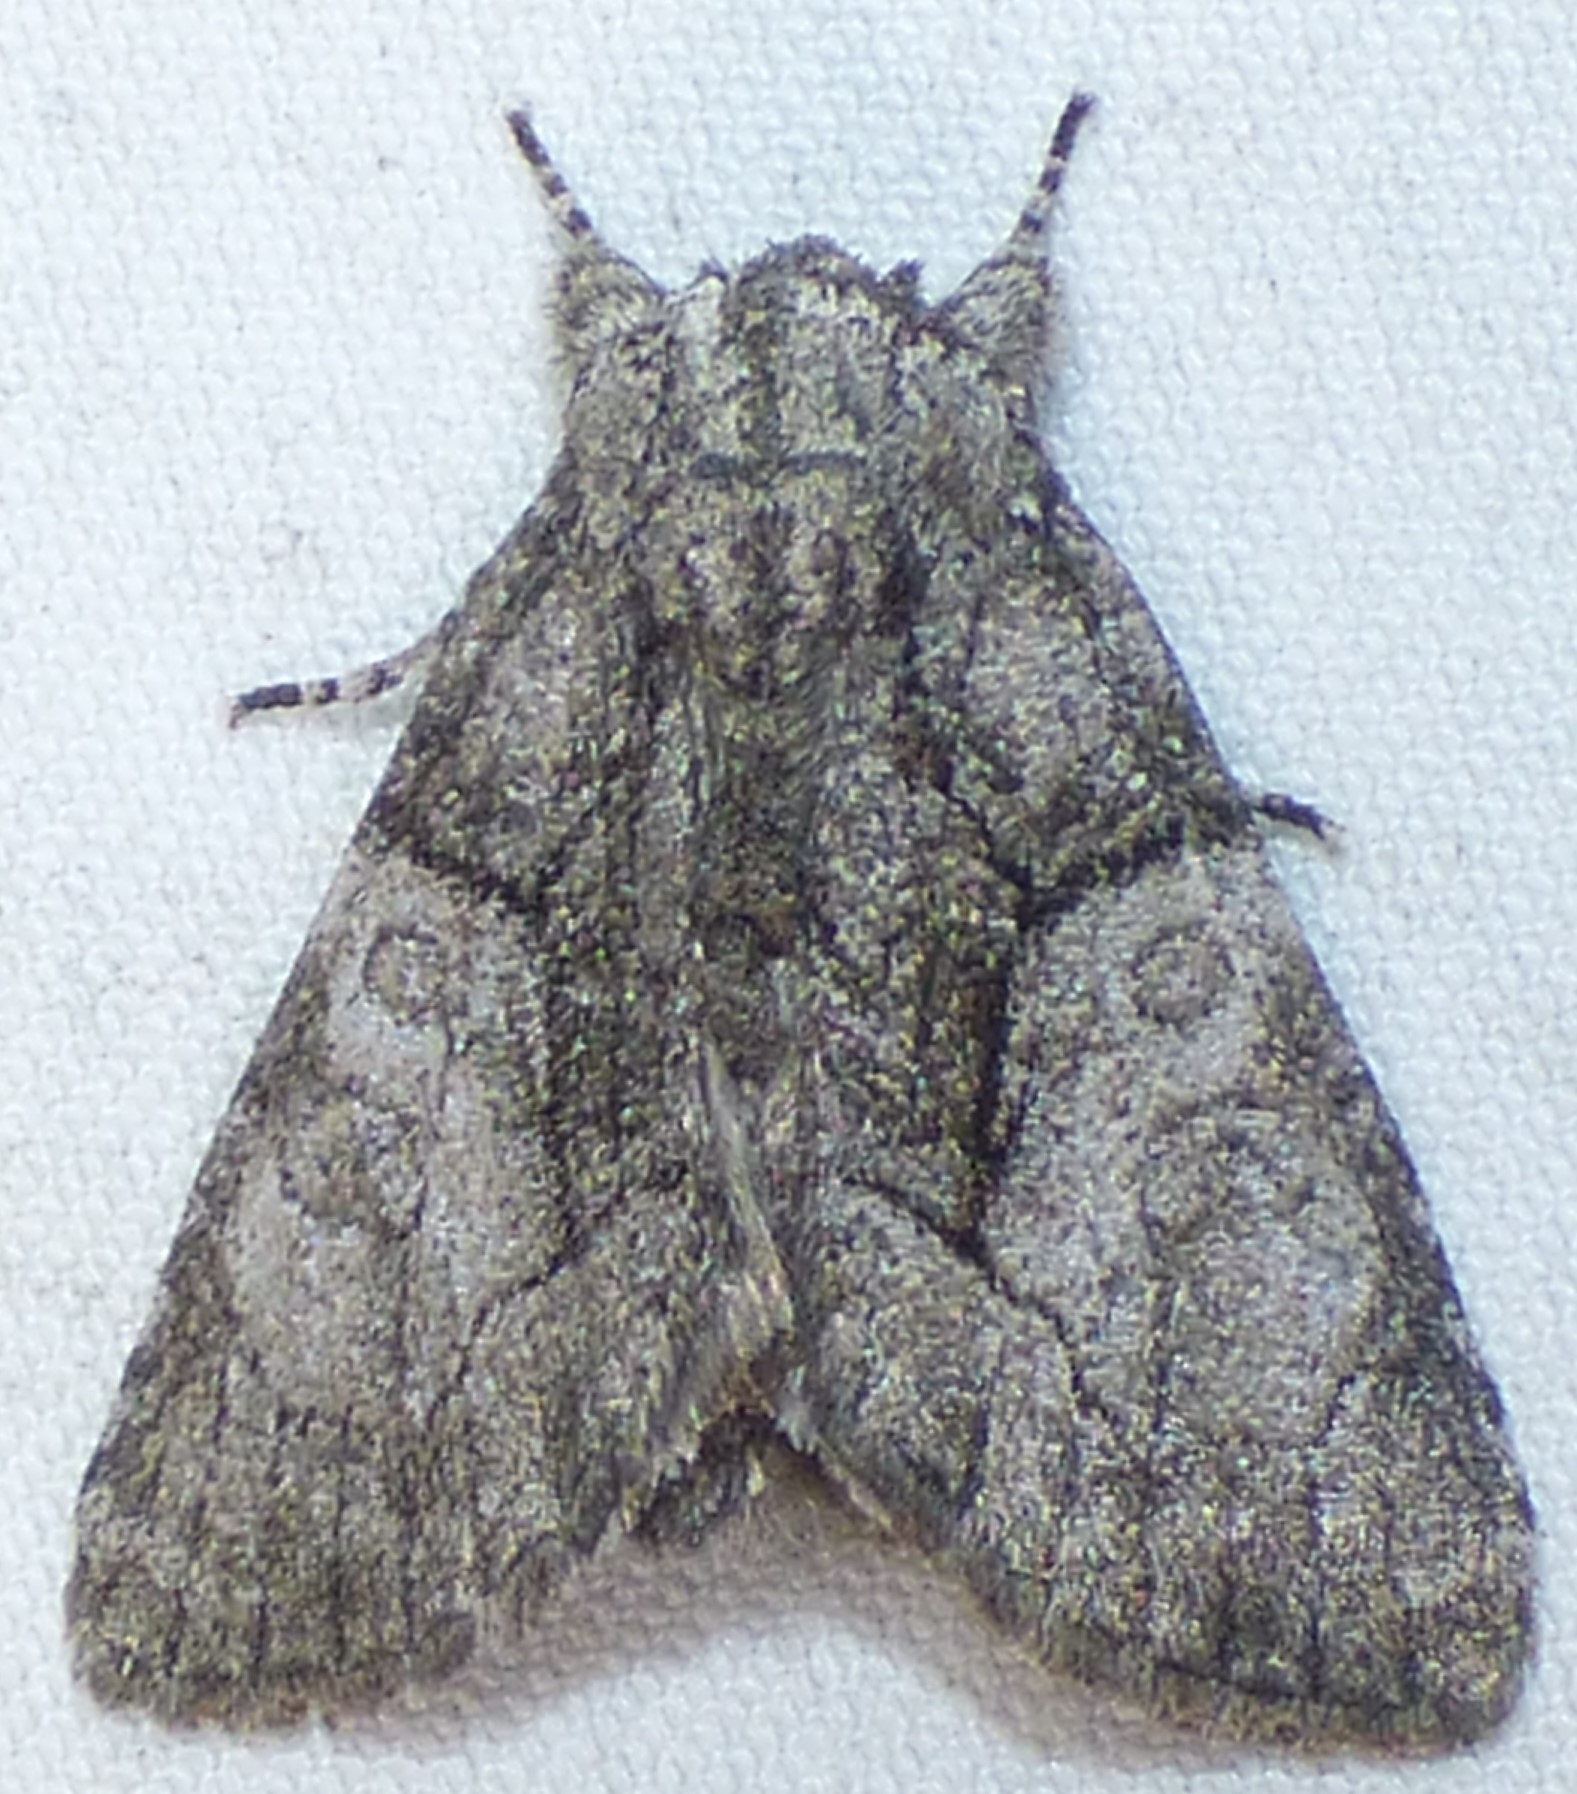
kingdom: Animalia
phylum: Arthropoda
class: Insecta
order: Lepidoptera
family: Noctuidae
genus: Raphia
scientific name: Raphia frater
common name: Brother
